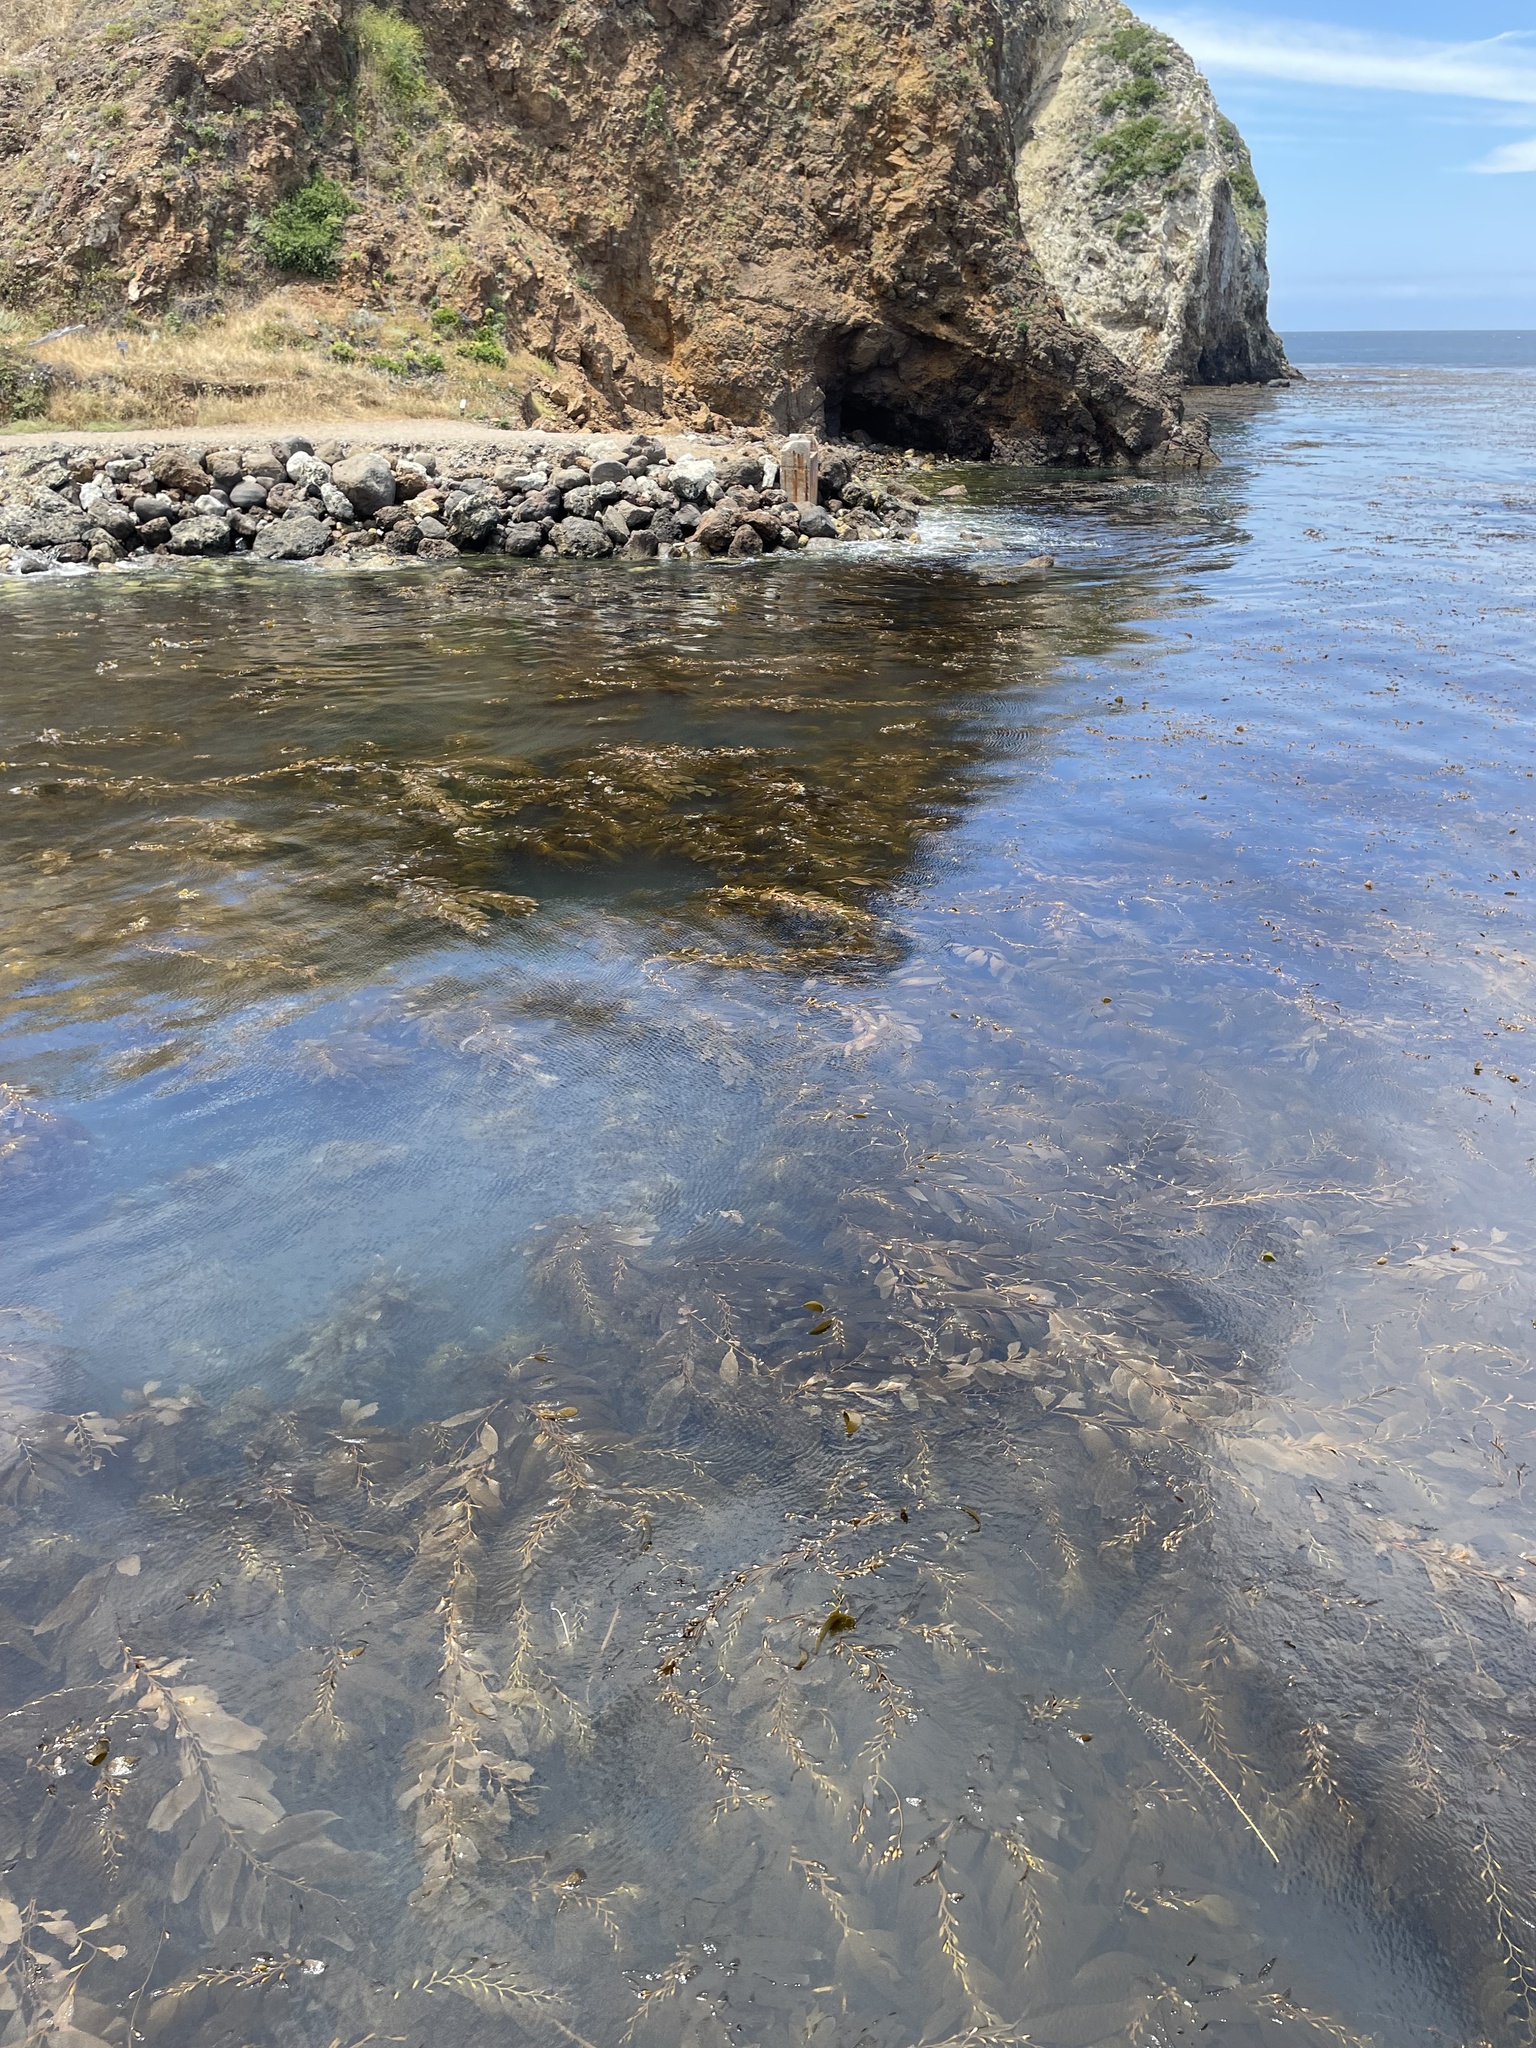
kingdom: Chromista
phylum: Ochrophyta
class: Phaeophyceae
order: Laminariales
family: Laminariaceae
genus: Macrocystis
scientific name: Macrocystis pyrifera
